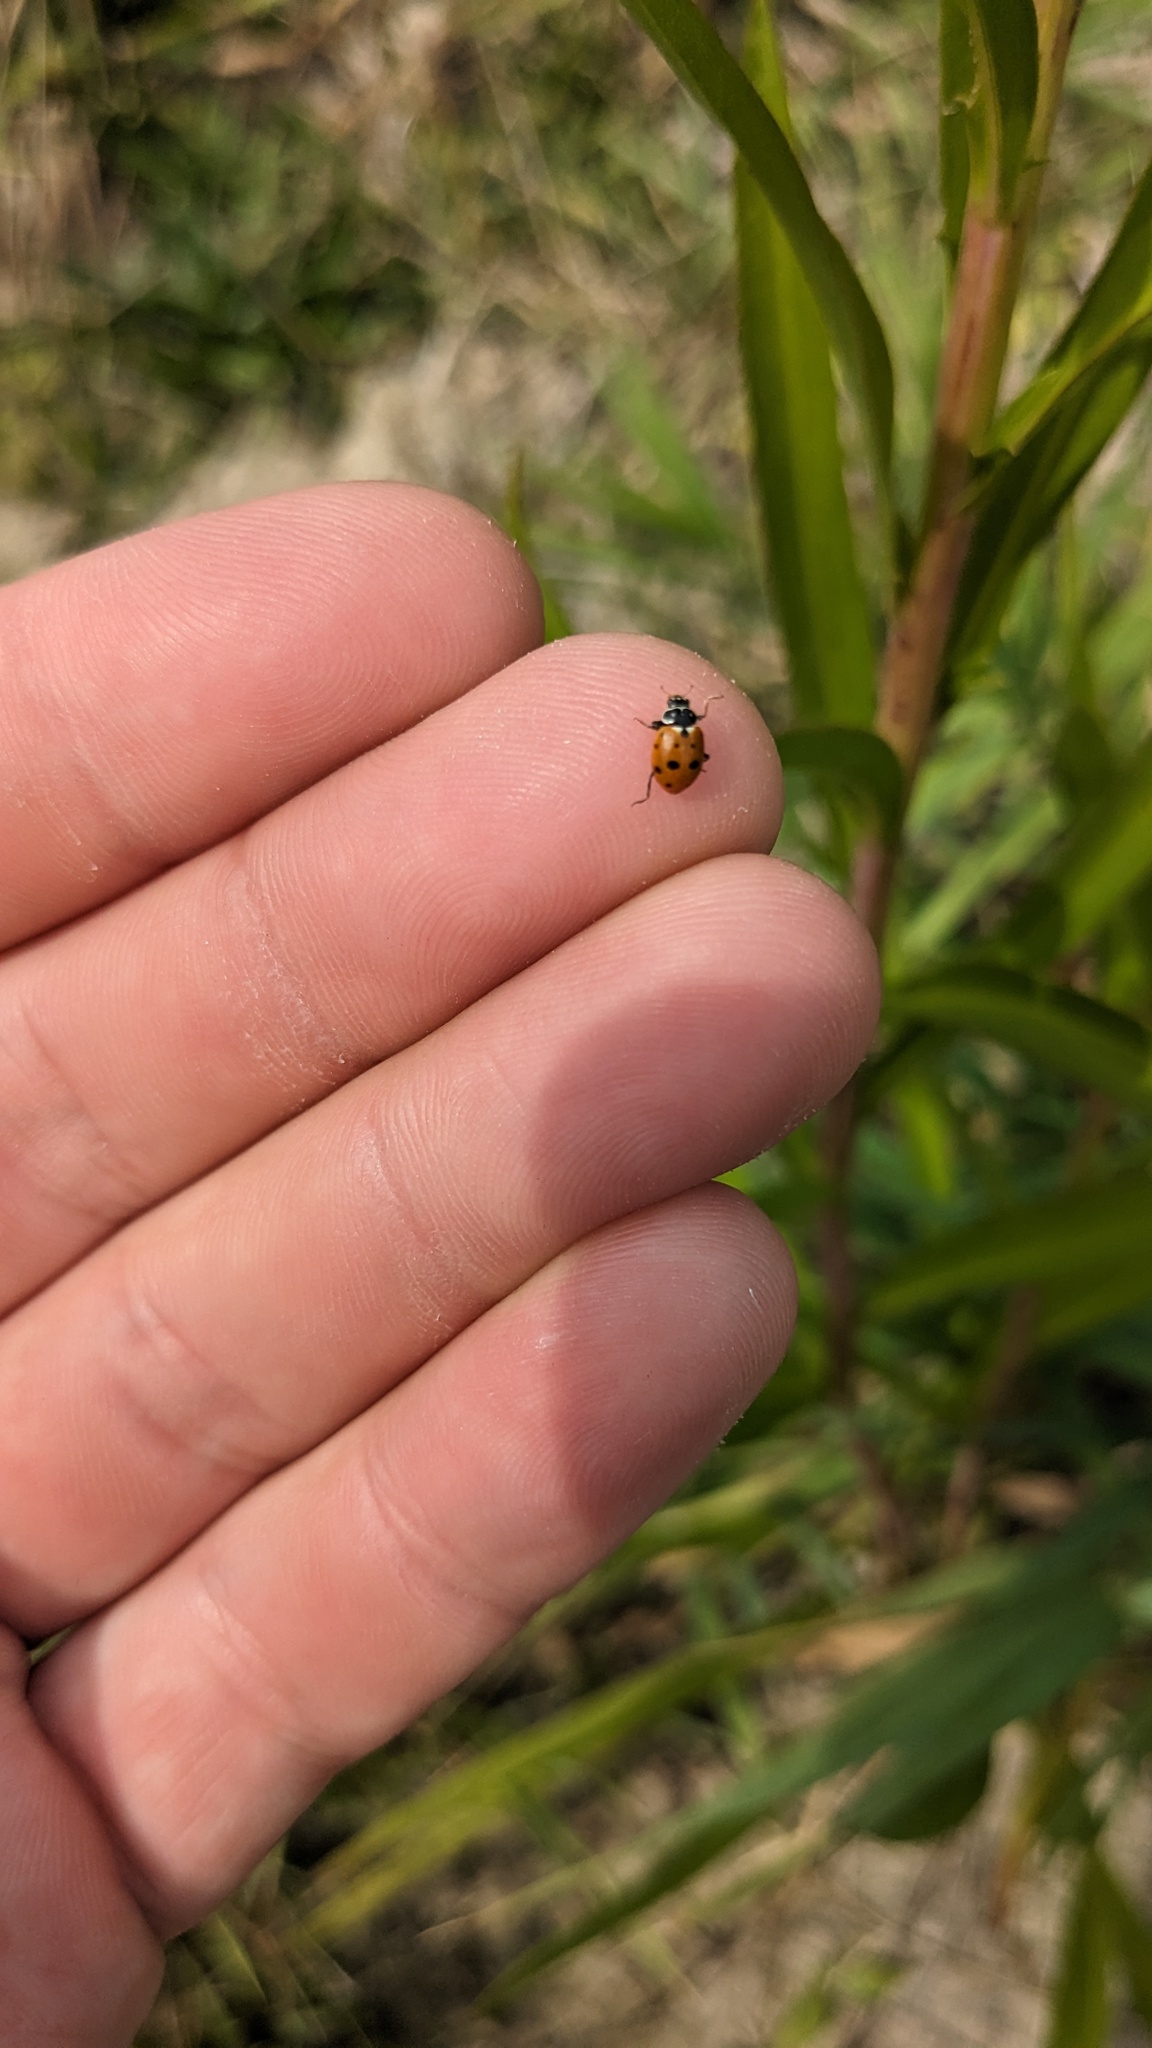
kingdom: Animalia
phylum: Arthropoda
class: Insecta
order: Coleoptera
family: Coccinellidae
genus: Hippodamia
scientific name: Hippodamia variegata
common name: Ladybird beetle
